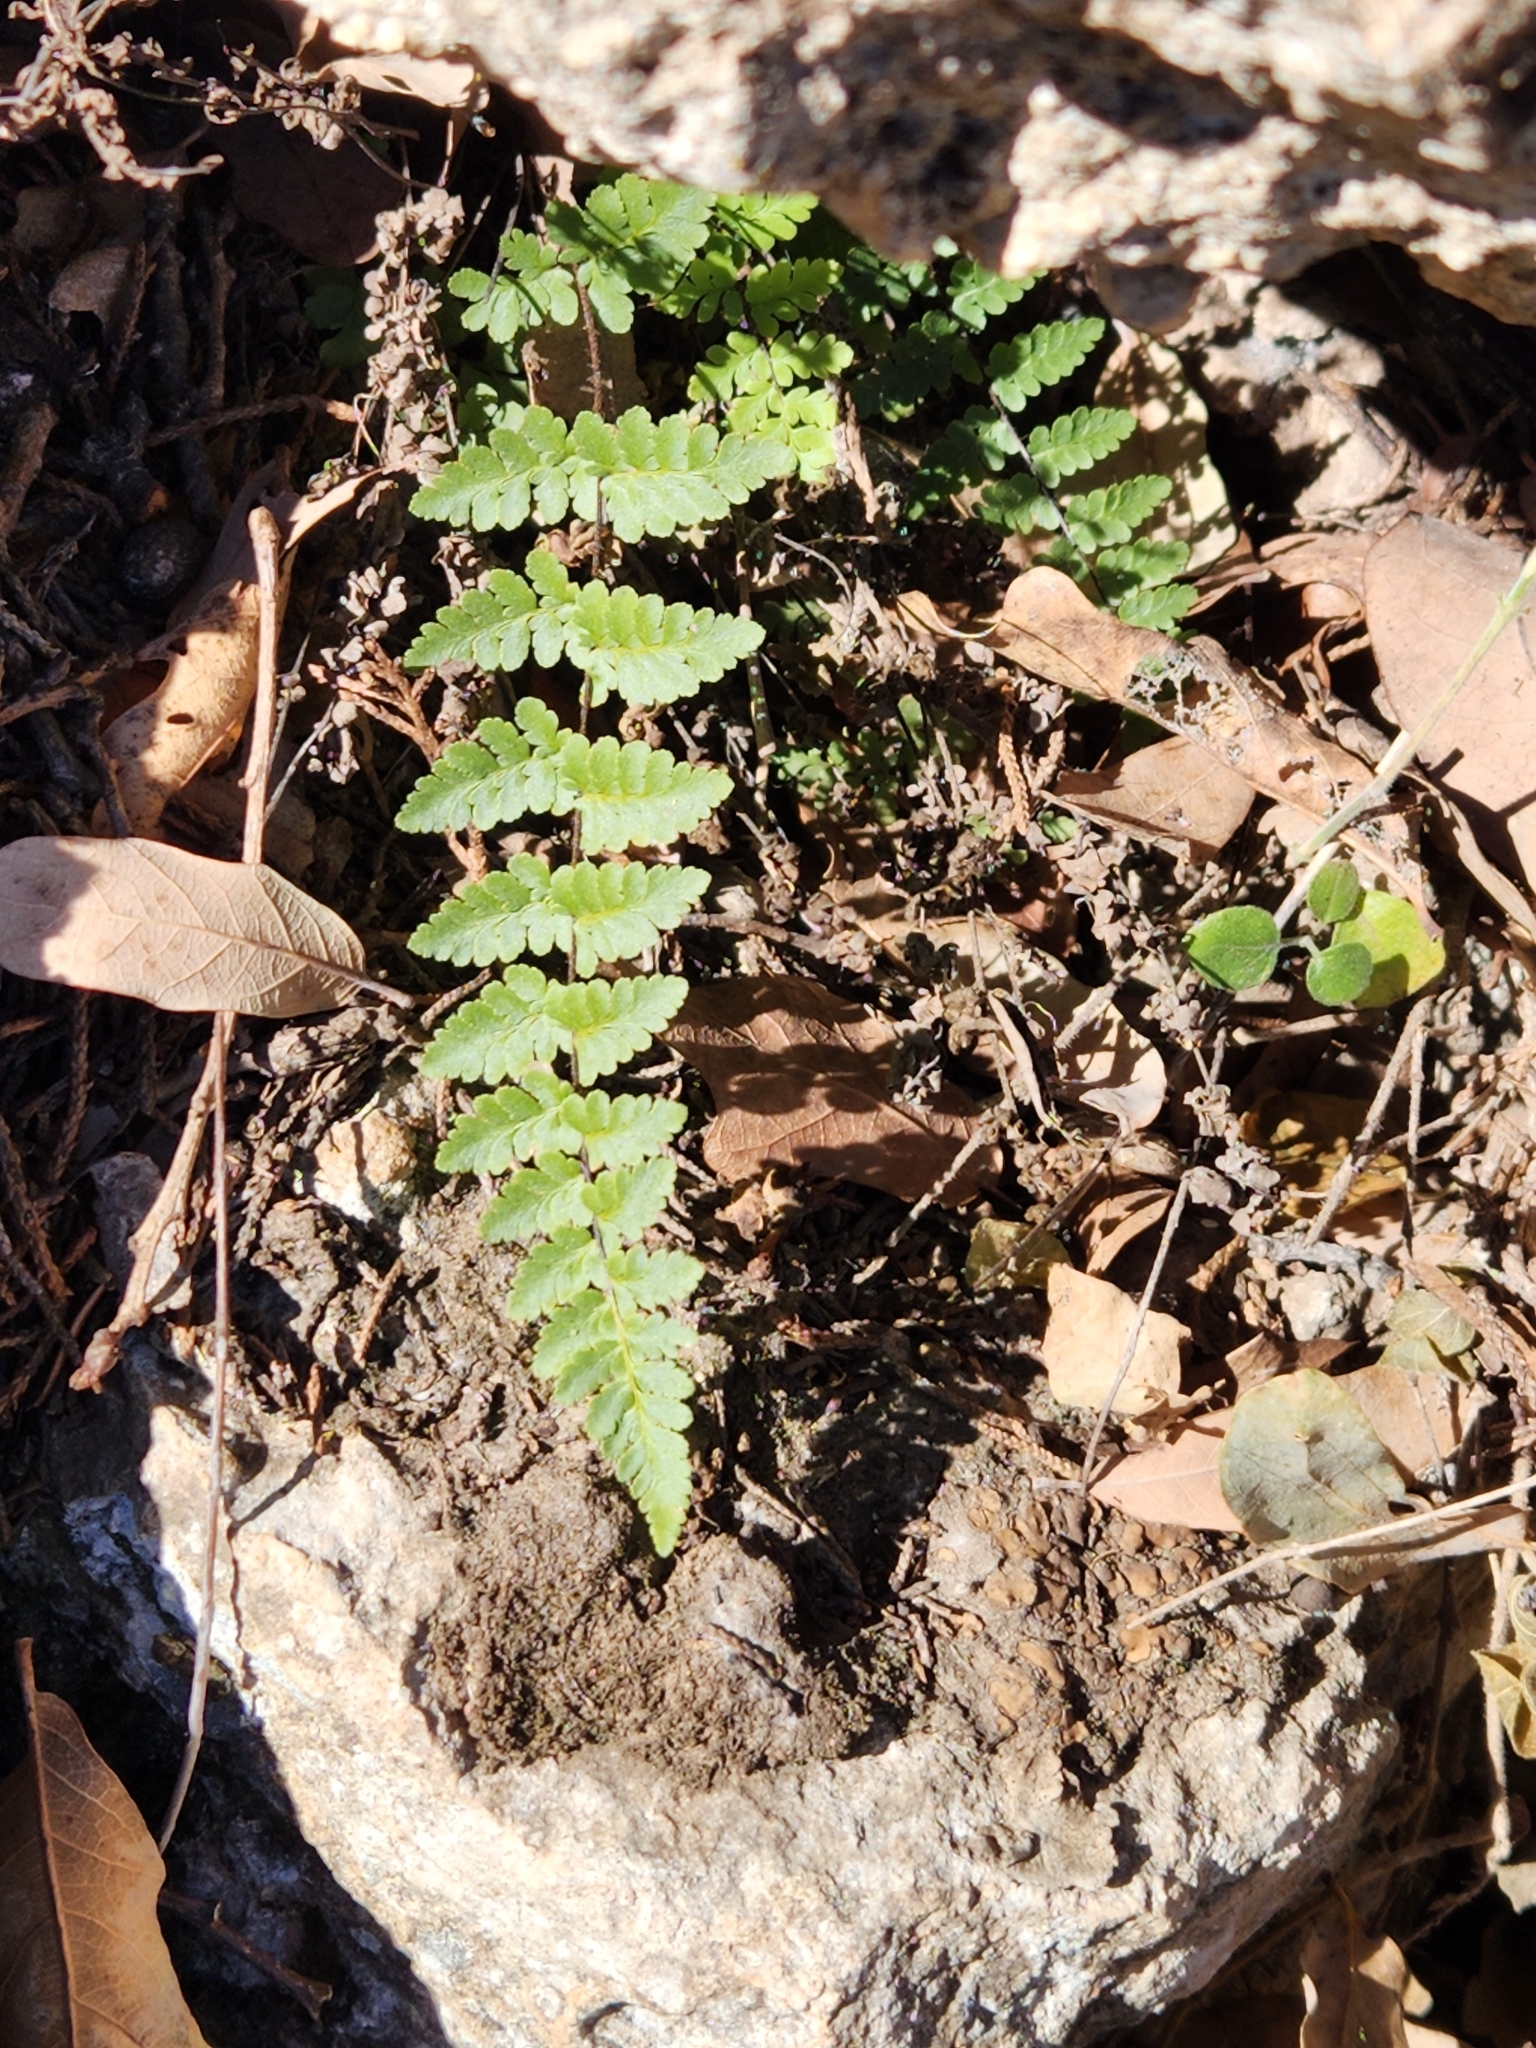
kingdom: Plantae
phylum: Tracheophyta
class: Polypodiopsida
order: Polypodiales
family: Pteridaceae
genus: Myriopteris
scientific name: Myriopteris alabamensis
